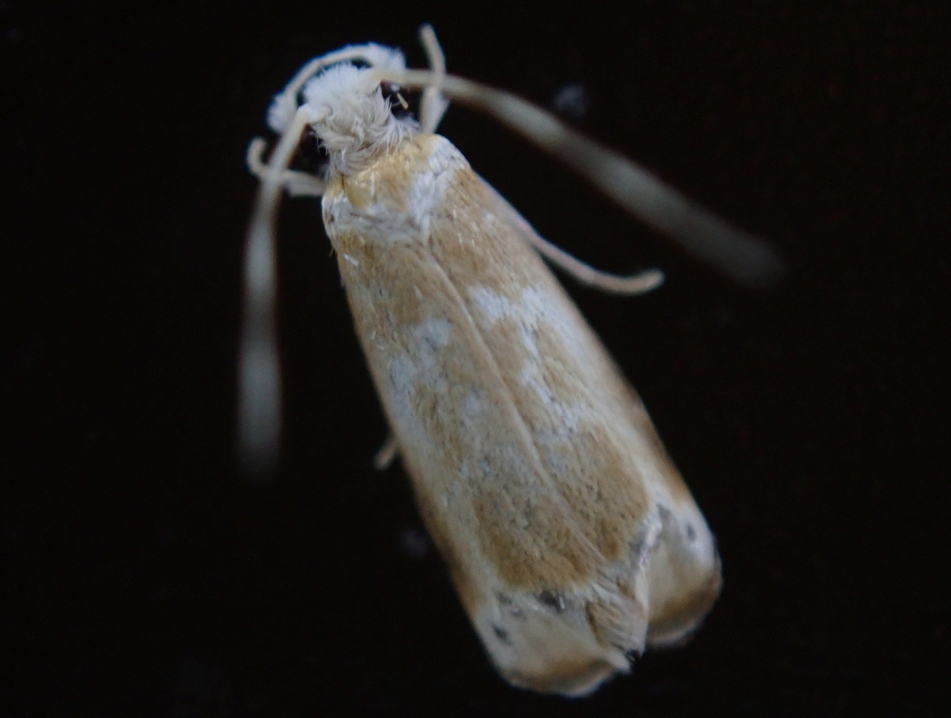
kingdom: Animalia
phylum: Arthropoda
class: Insecta
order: Lepidoptera
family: Dryadaulidae
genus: Dryadaula
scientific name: Dryadaula terpsichorella
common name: Dancing moth
